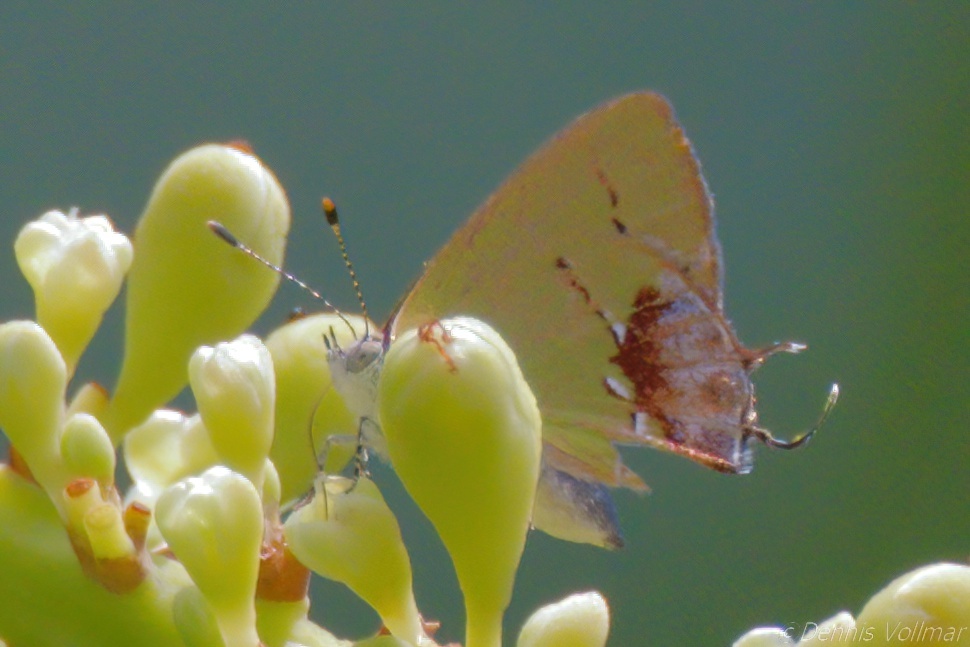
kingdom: Animalia
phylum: Arthropoda
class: Insecta
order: Lepidoptera
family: Lycaenidae
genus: Thecla
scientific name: Thecla maesites
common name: Verde azul hairstreak
